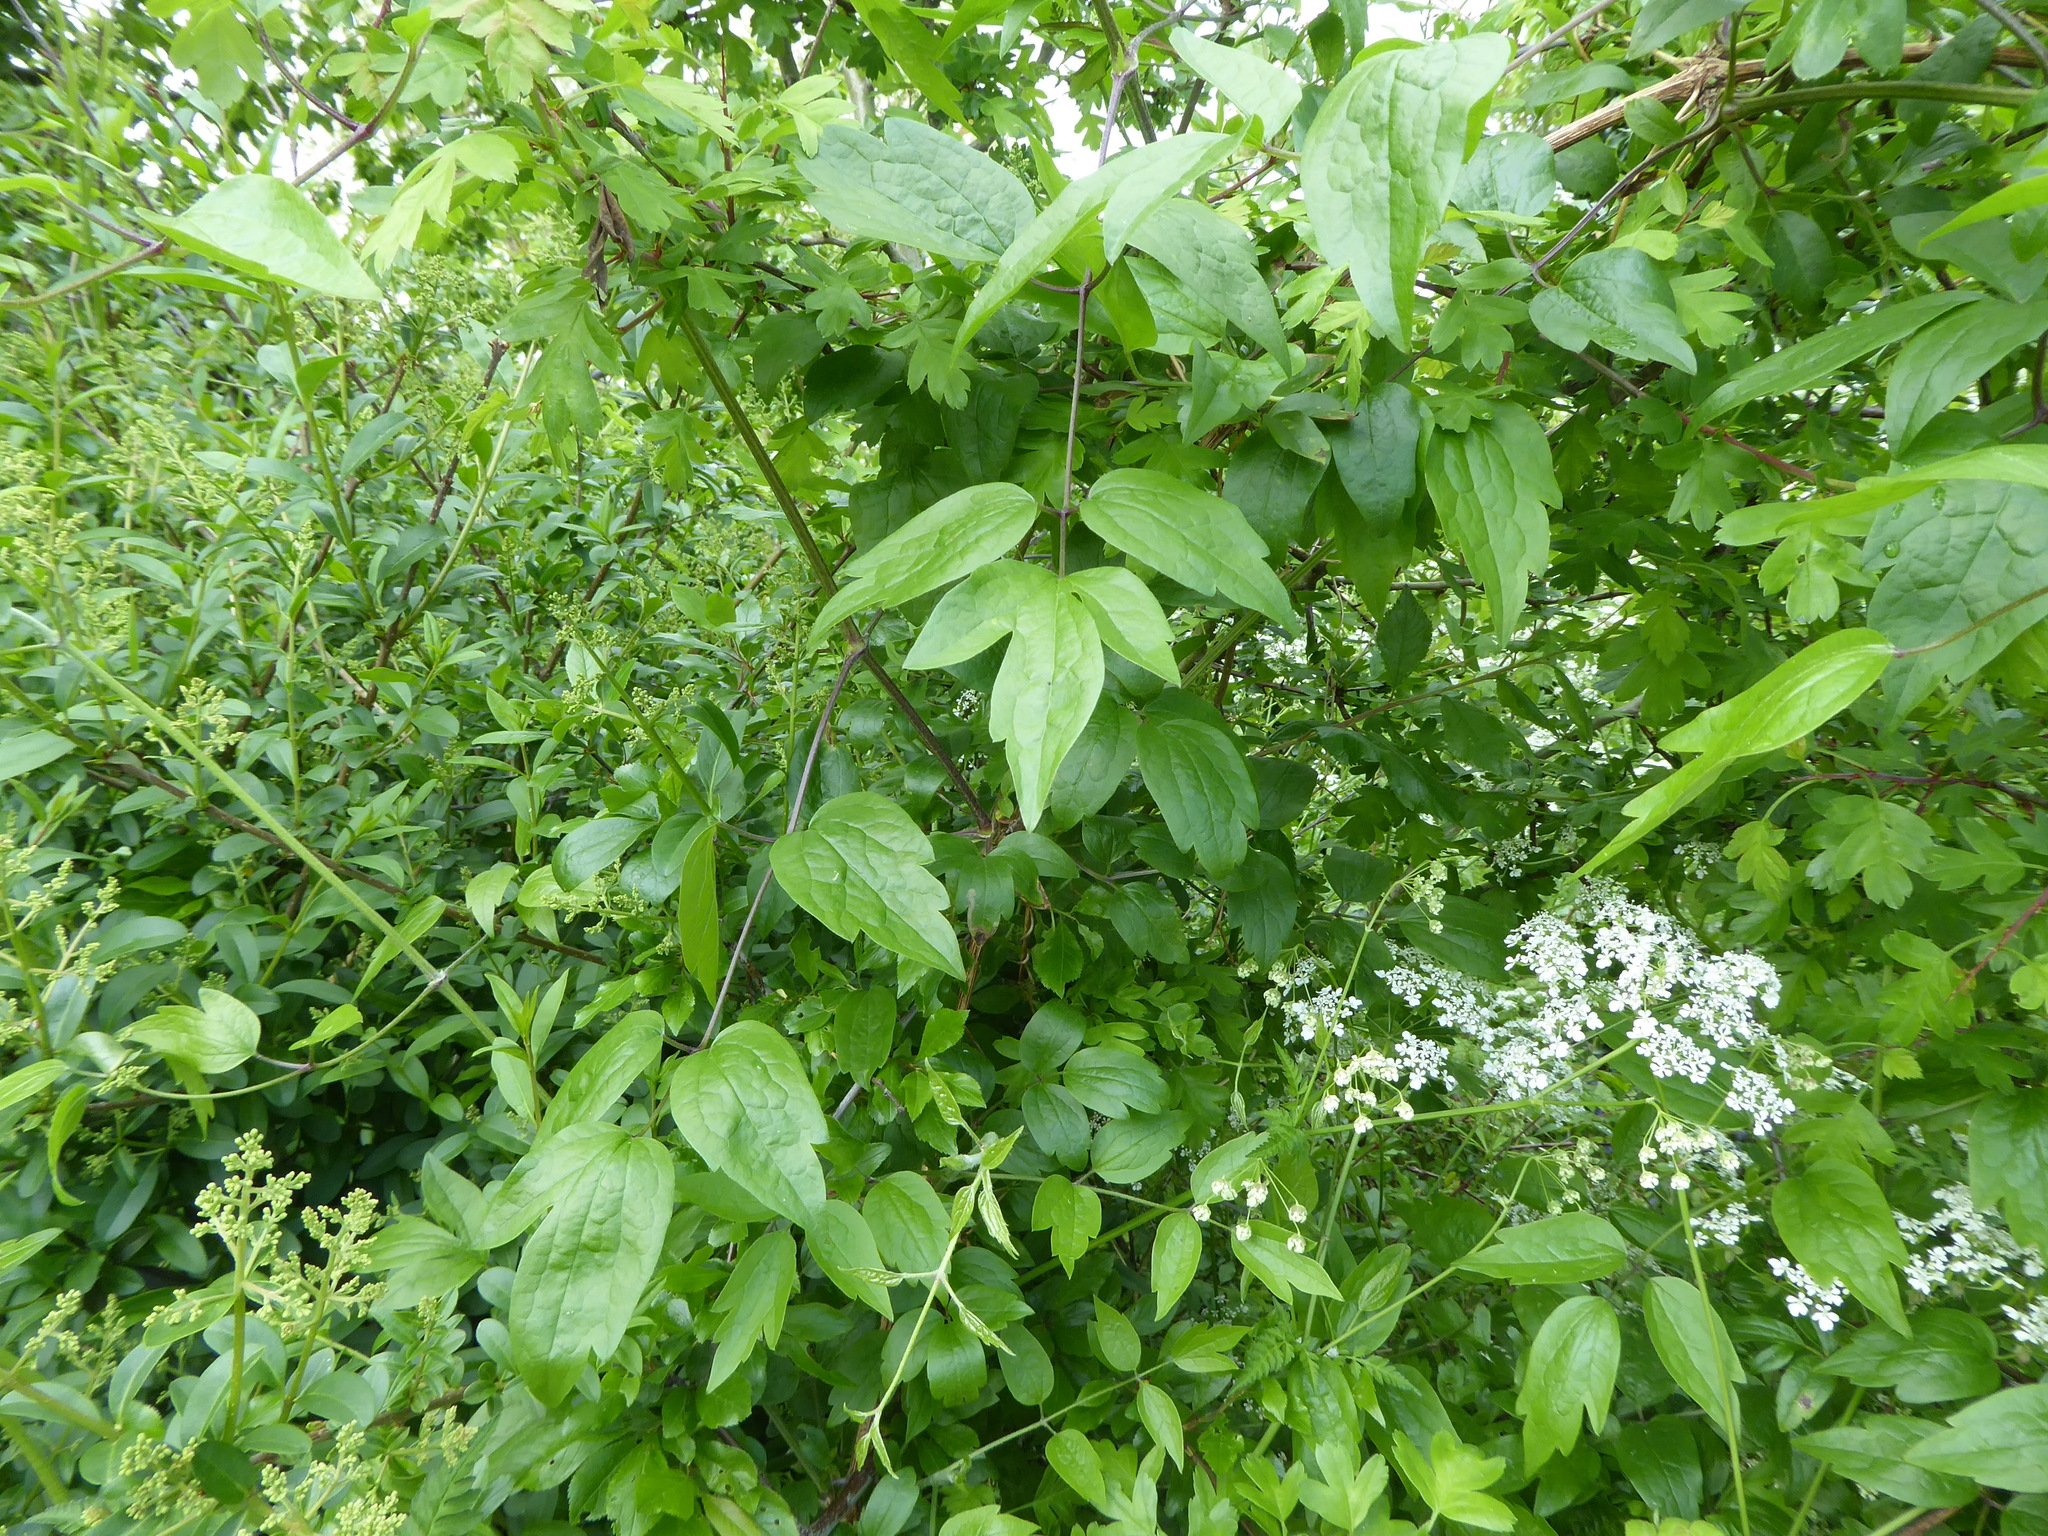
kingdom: Plantae
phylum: Tracheophyta
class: Magnoliopsida
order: Ranunculales
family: Ranunculaceae
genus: Clematis
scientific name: Clematis vitalba
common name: Evergreen clematis
